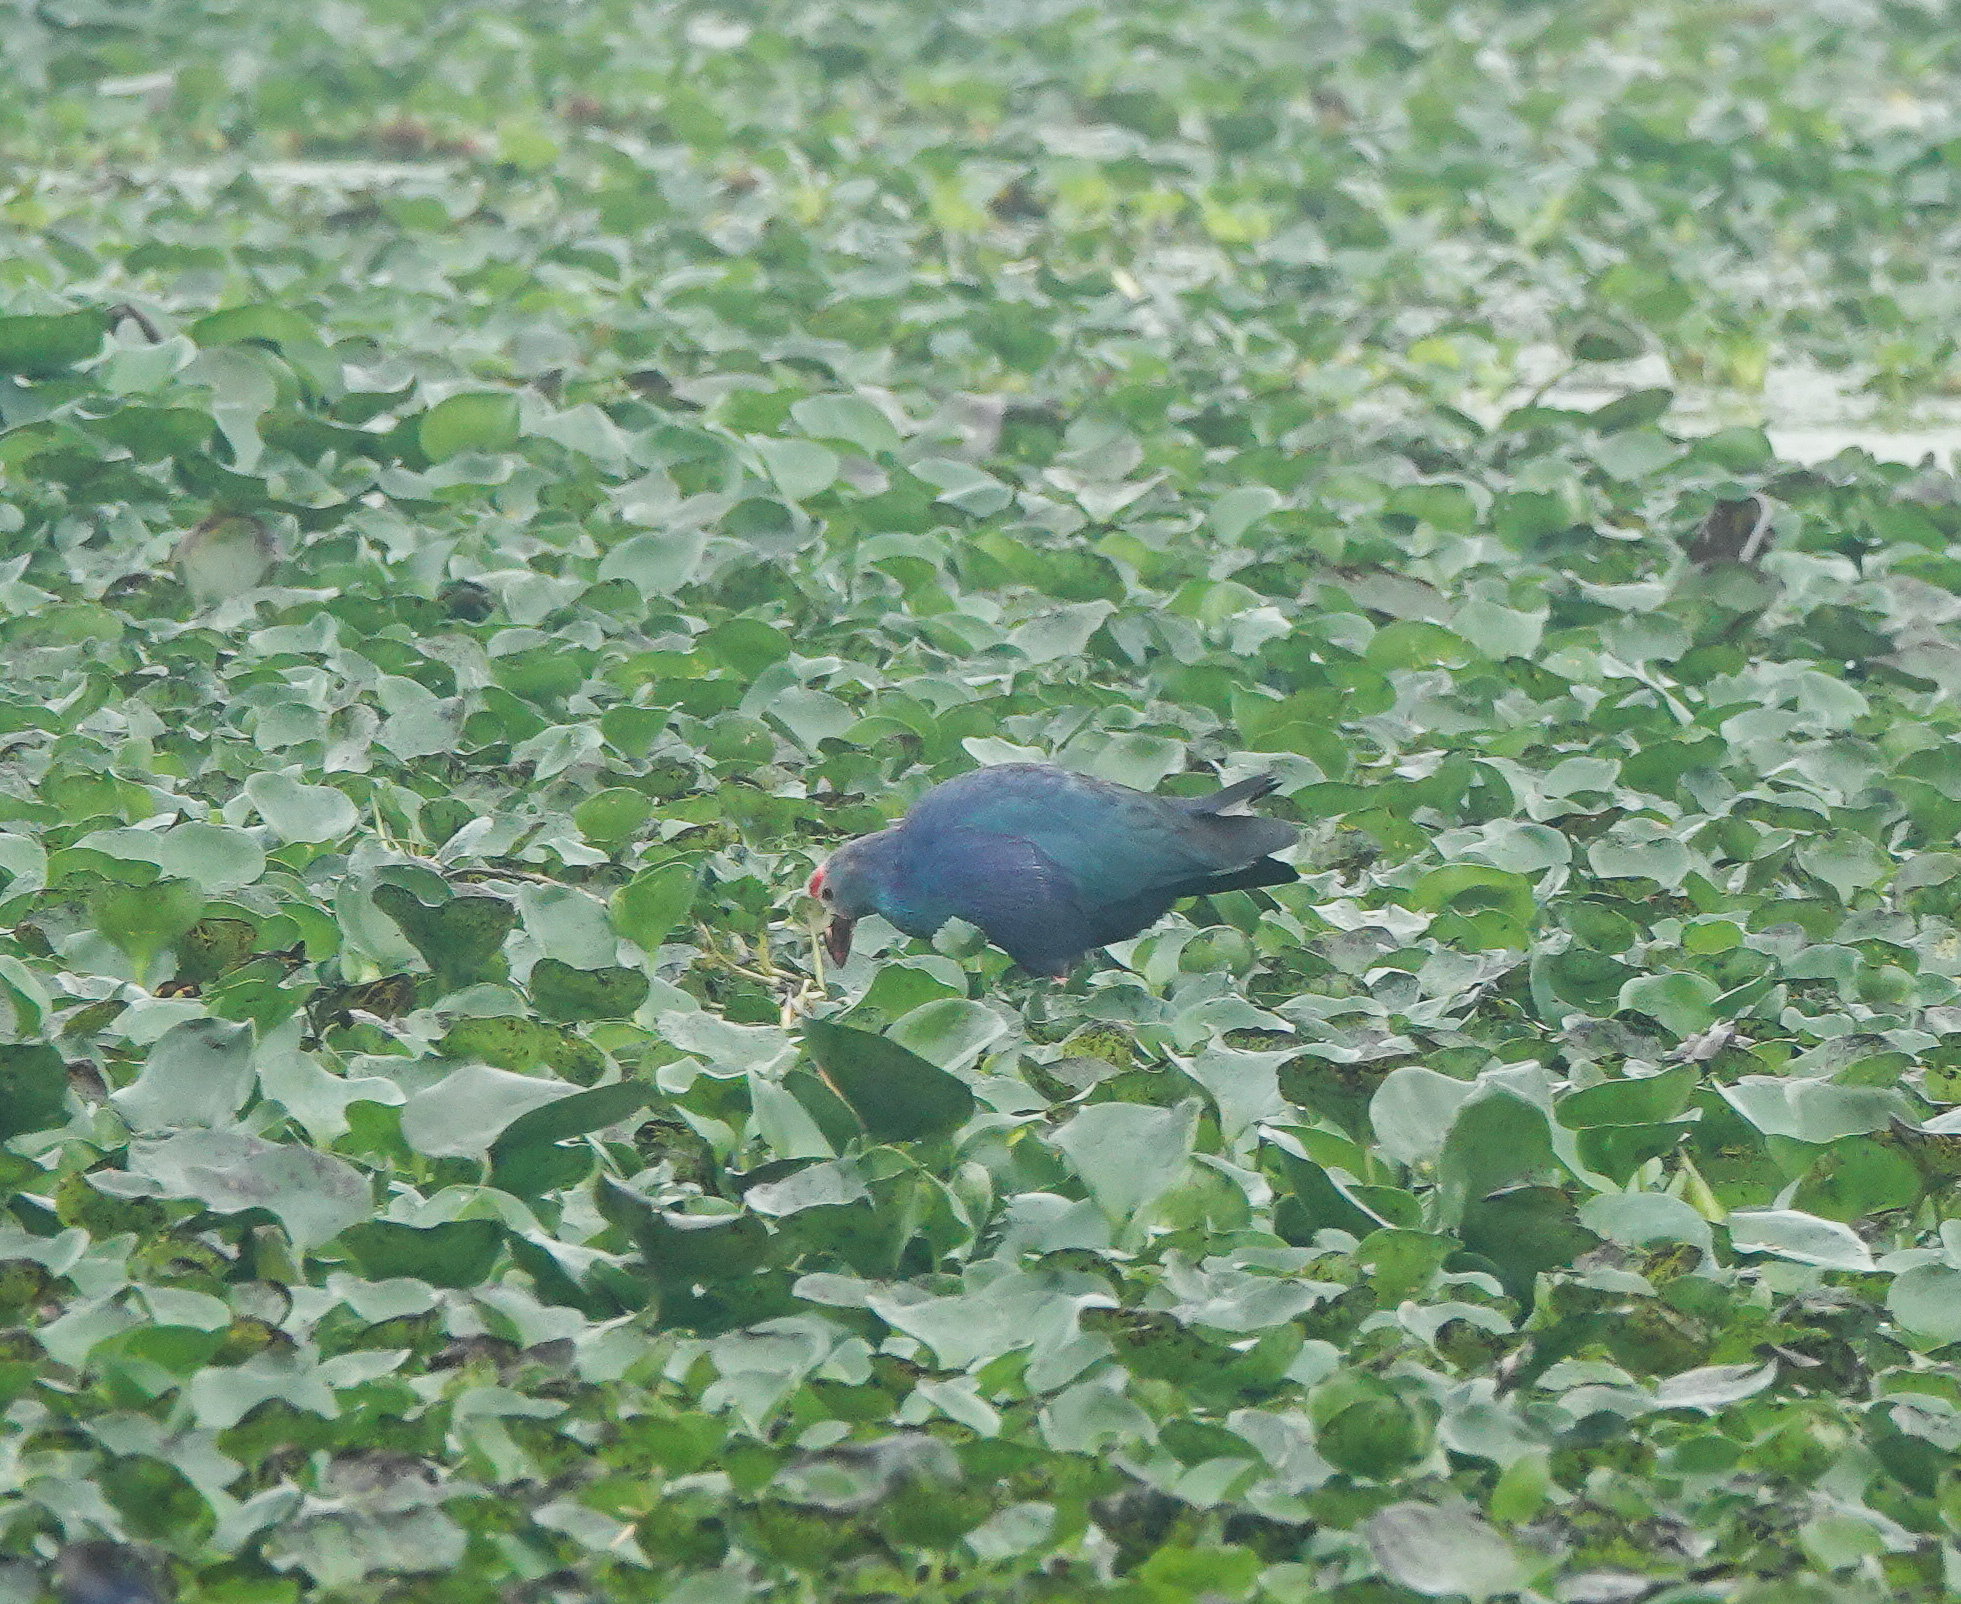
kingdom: Animalia
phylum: Chordata
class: Aves
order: Gruiformes
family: Rallidae
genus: Porphyrio
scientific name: Porphyrio porphyrio
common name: Purple swamphen
